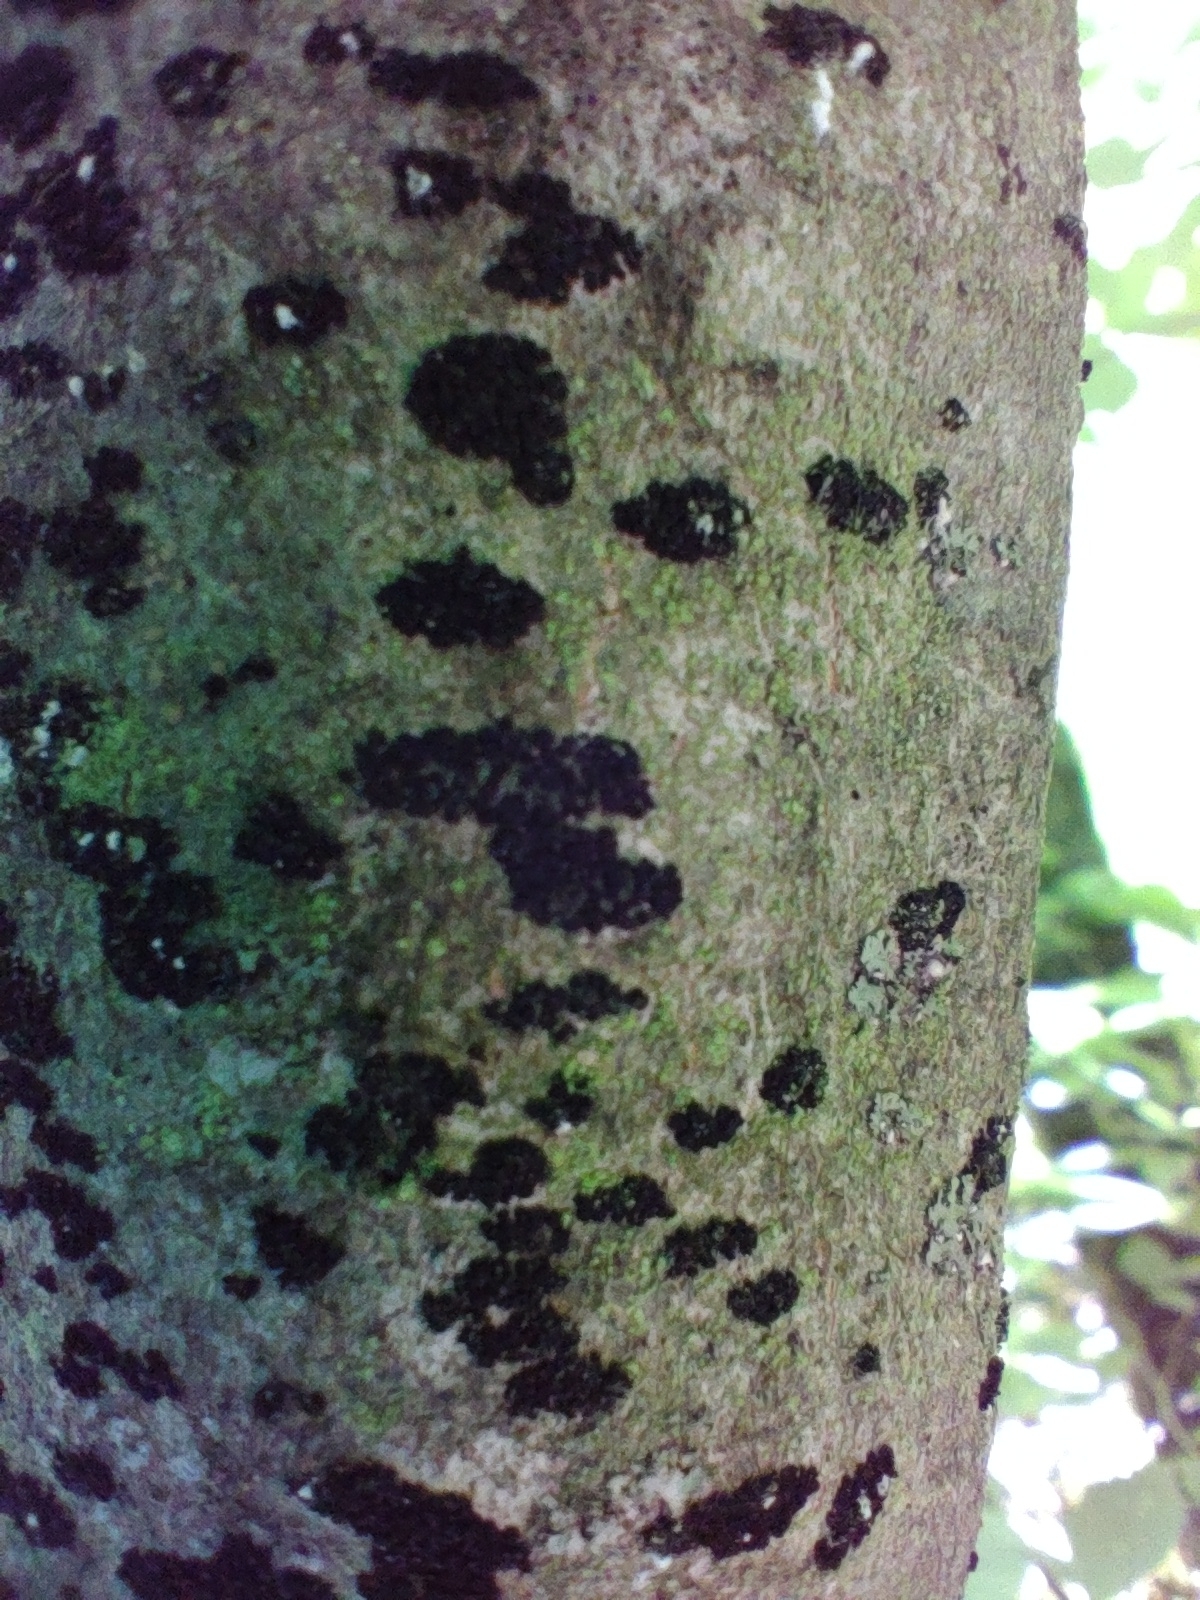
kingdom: Fungi
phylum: Ascomycota
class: Leotiomycetes
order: Rhytismatales
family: Ascodichaenaceae
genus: Ascodichaena
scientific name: Ascodichaena rugosa
